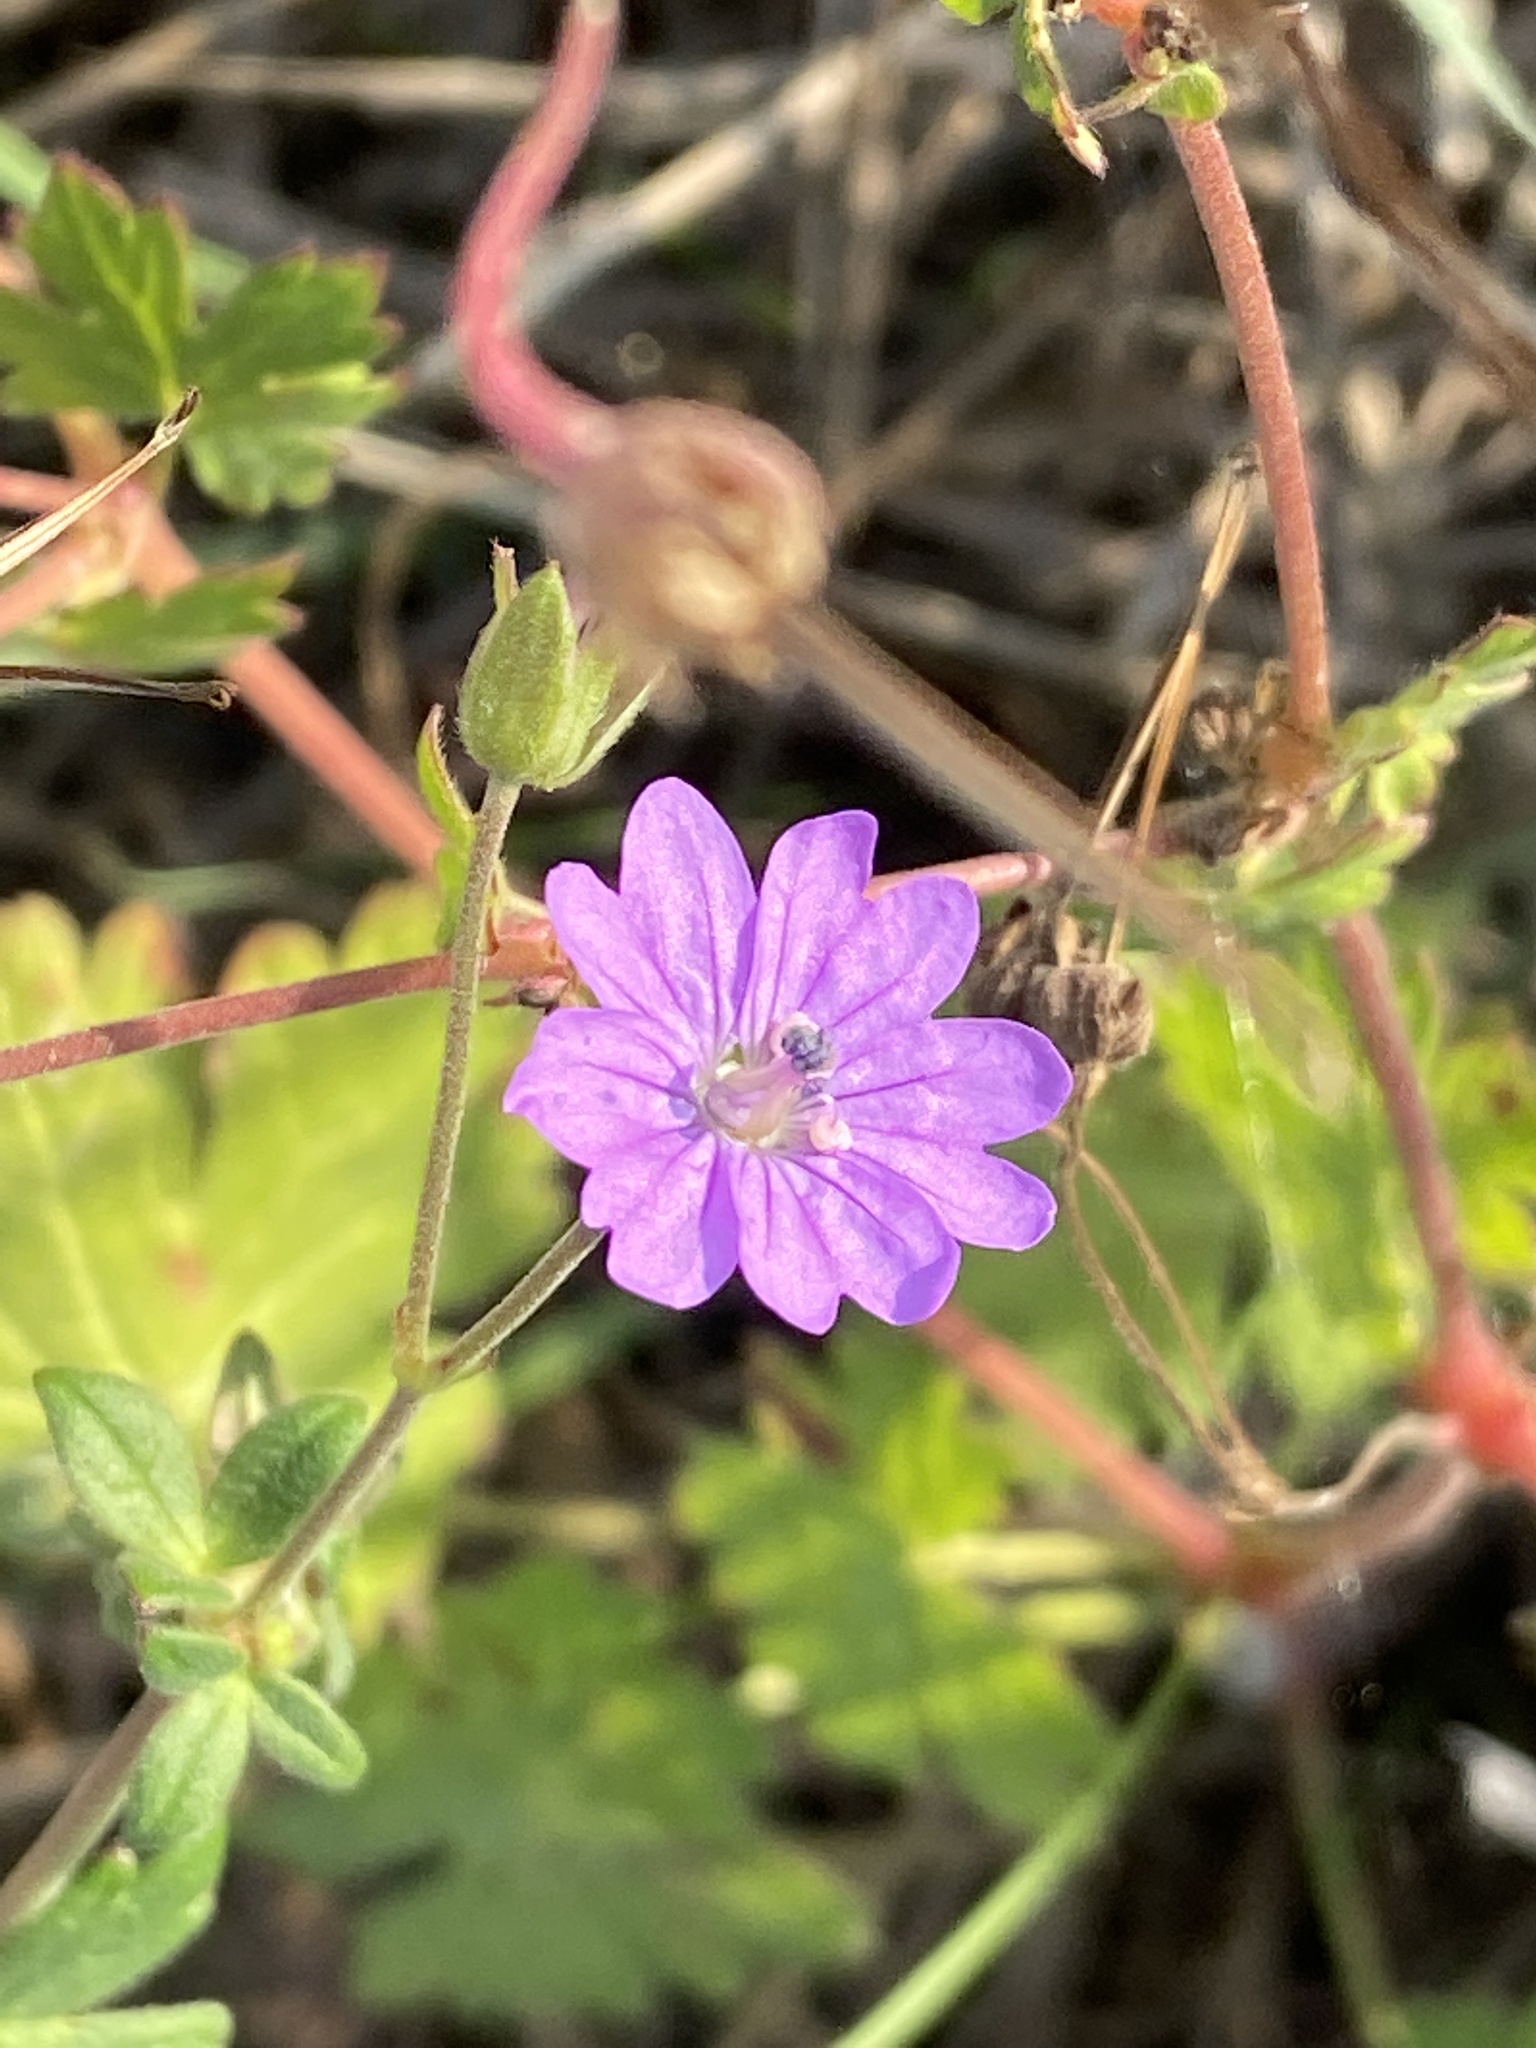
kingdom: Plantae
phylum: Tracheophyta
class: Magnoliopsida
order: Geraniales
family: Geraniaceae
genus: Geranium
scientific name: Geranium pyrenaicum
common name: Hedgerow crane's-bill
